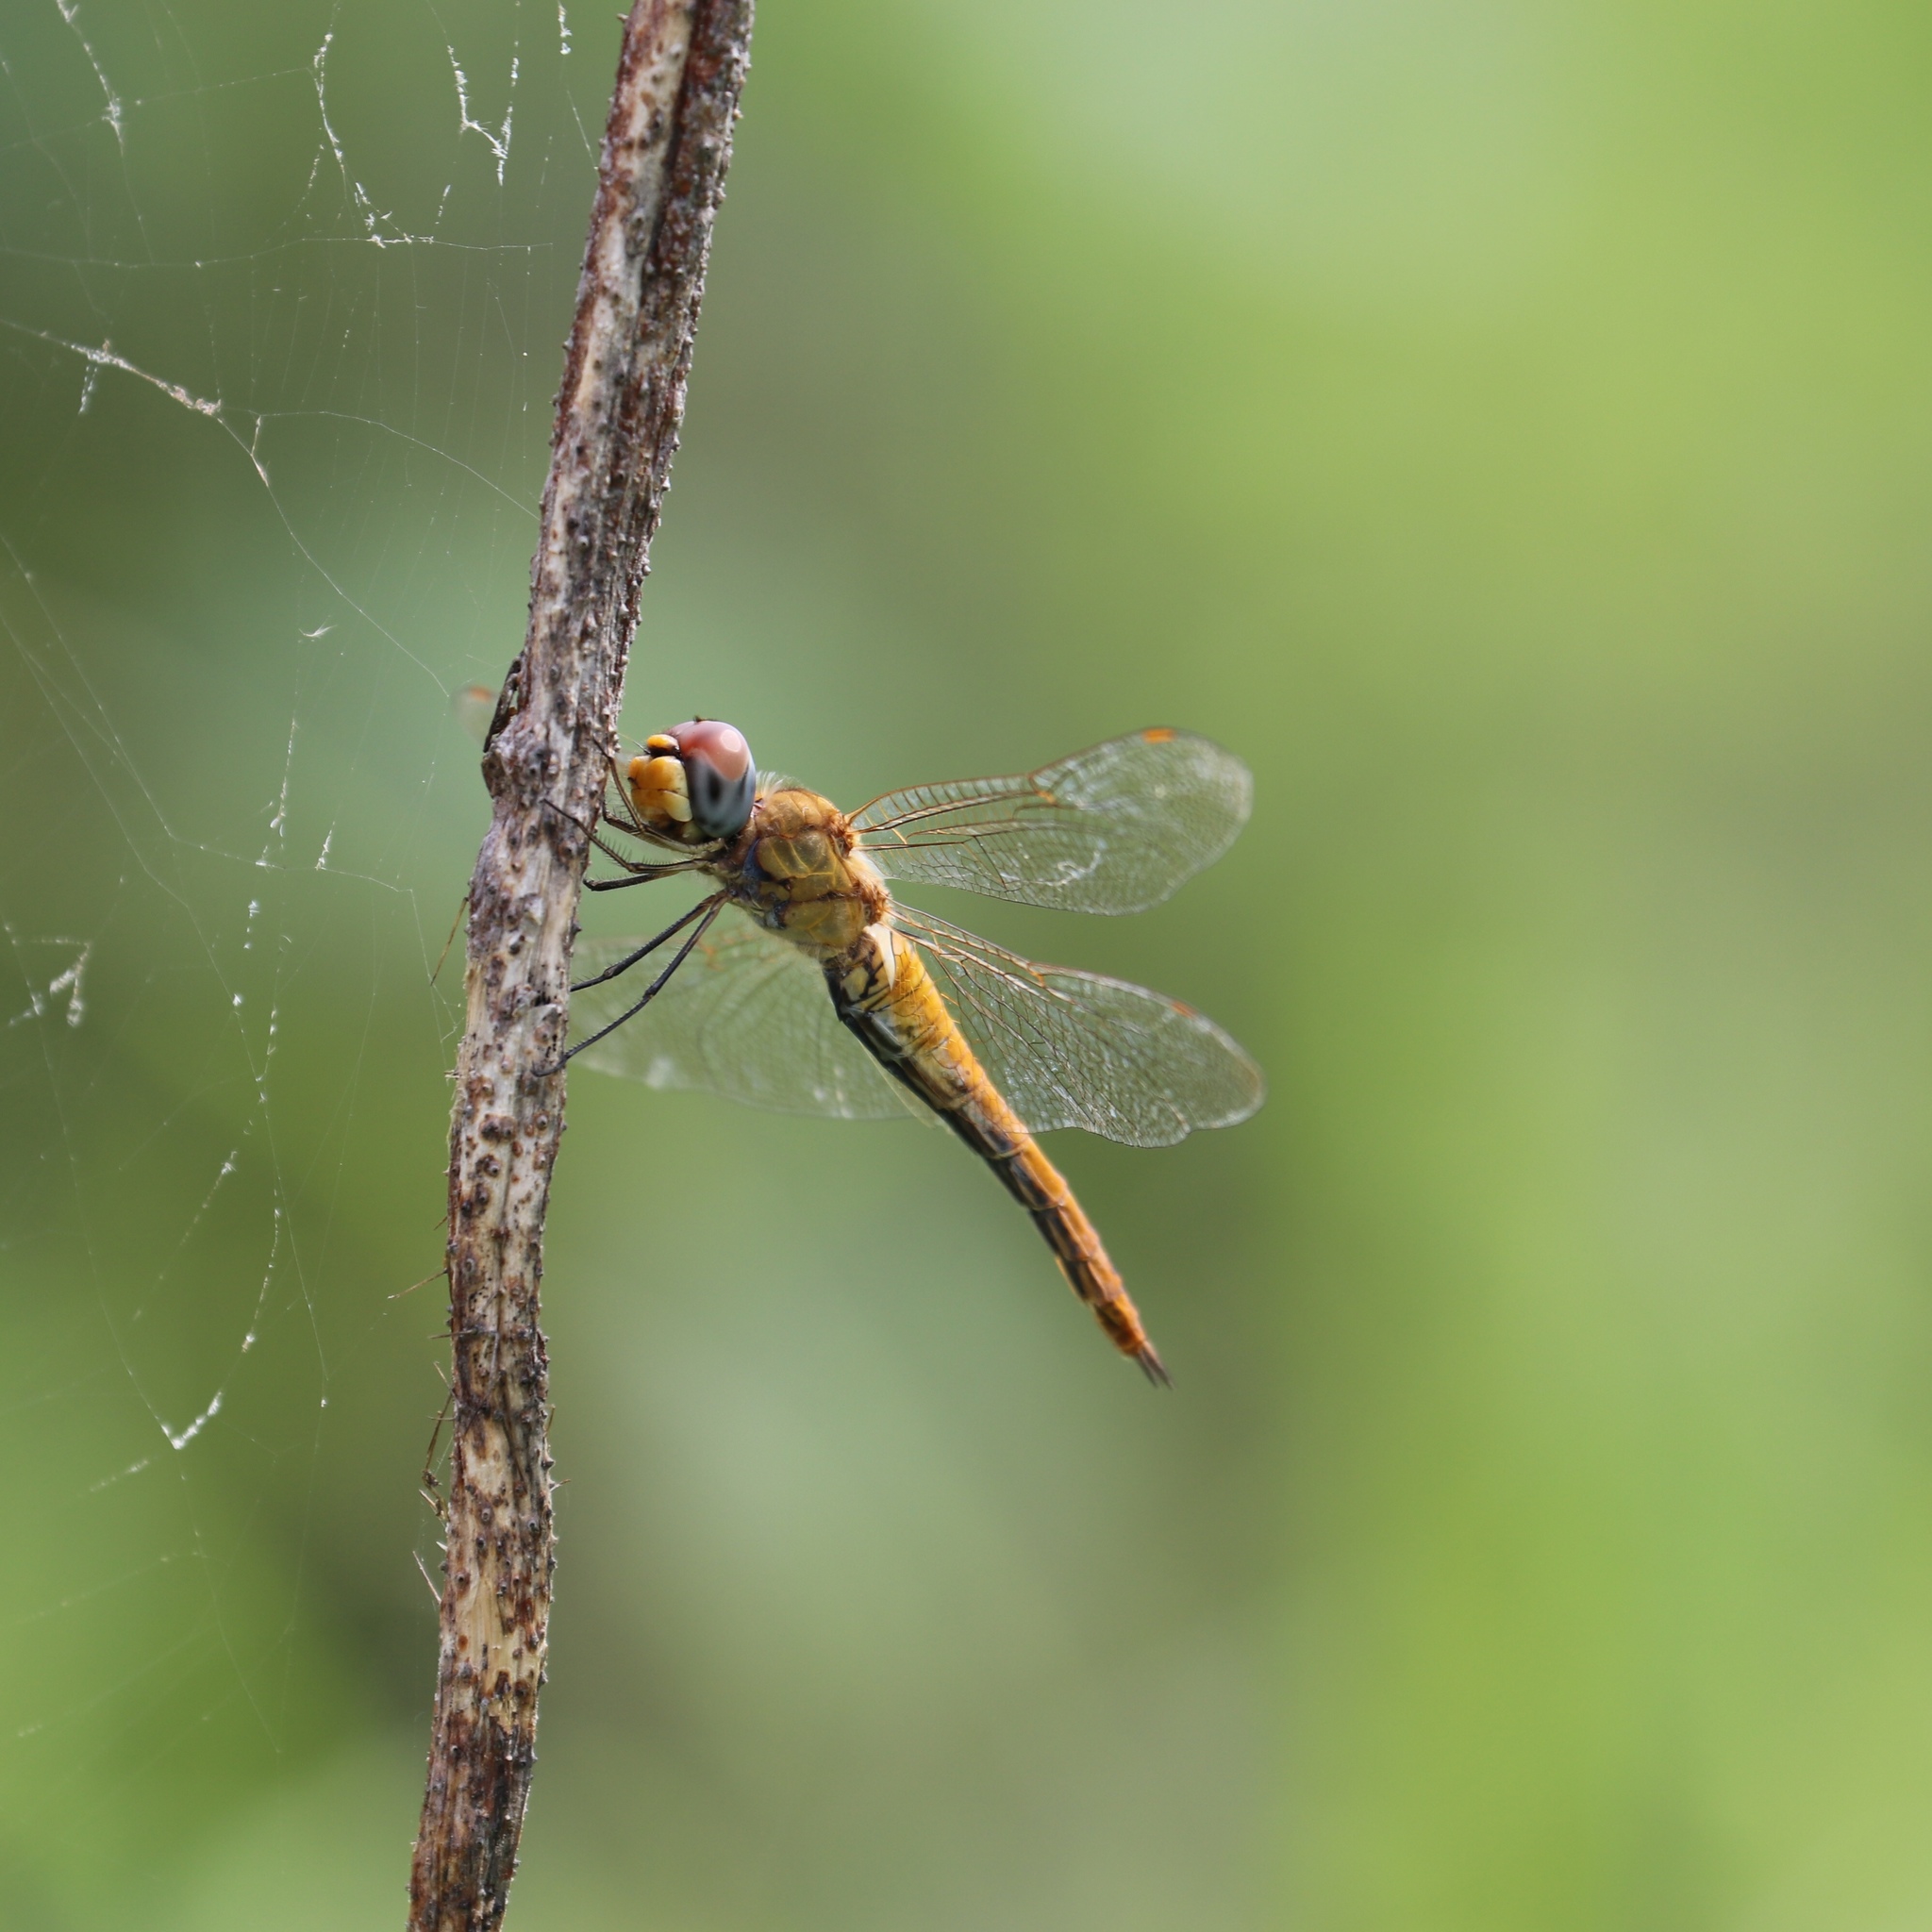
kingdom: Animalia
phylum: Arthropoda
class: Insecta
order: Odonata
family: Libellulidae
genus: Pantala
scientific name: Pantala flavescens
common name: Wandering glider
